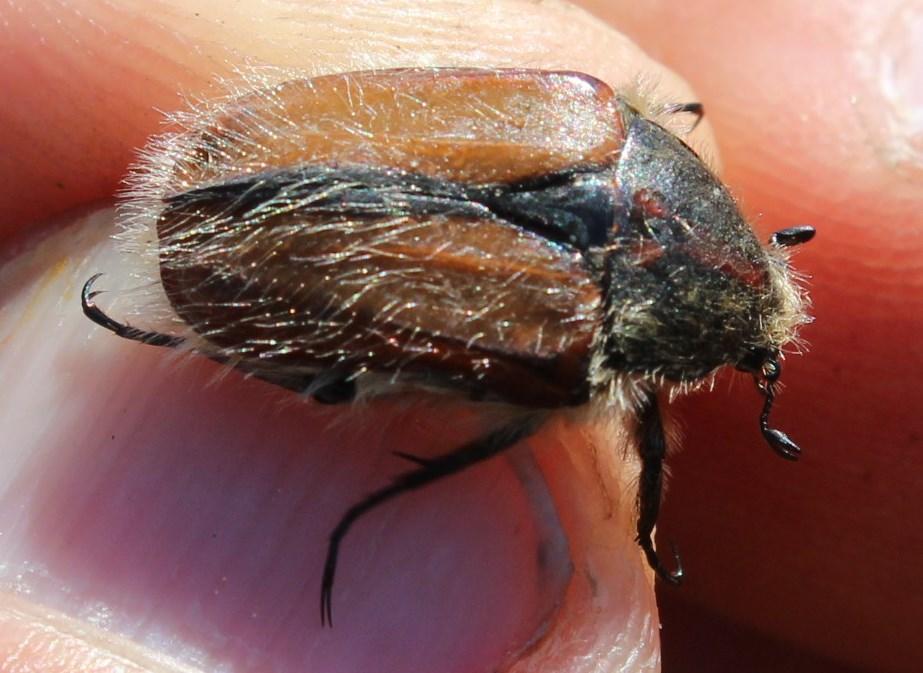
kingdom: Animalia
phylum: Arthropoda
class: Insecta
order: Coleoptera
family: Scarabaeidae
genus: Trichostetha
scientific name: Trichostetha capensis
